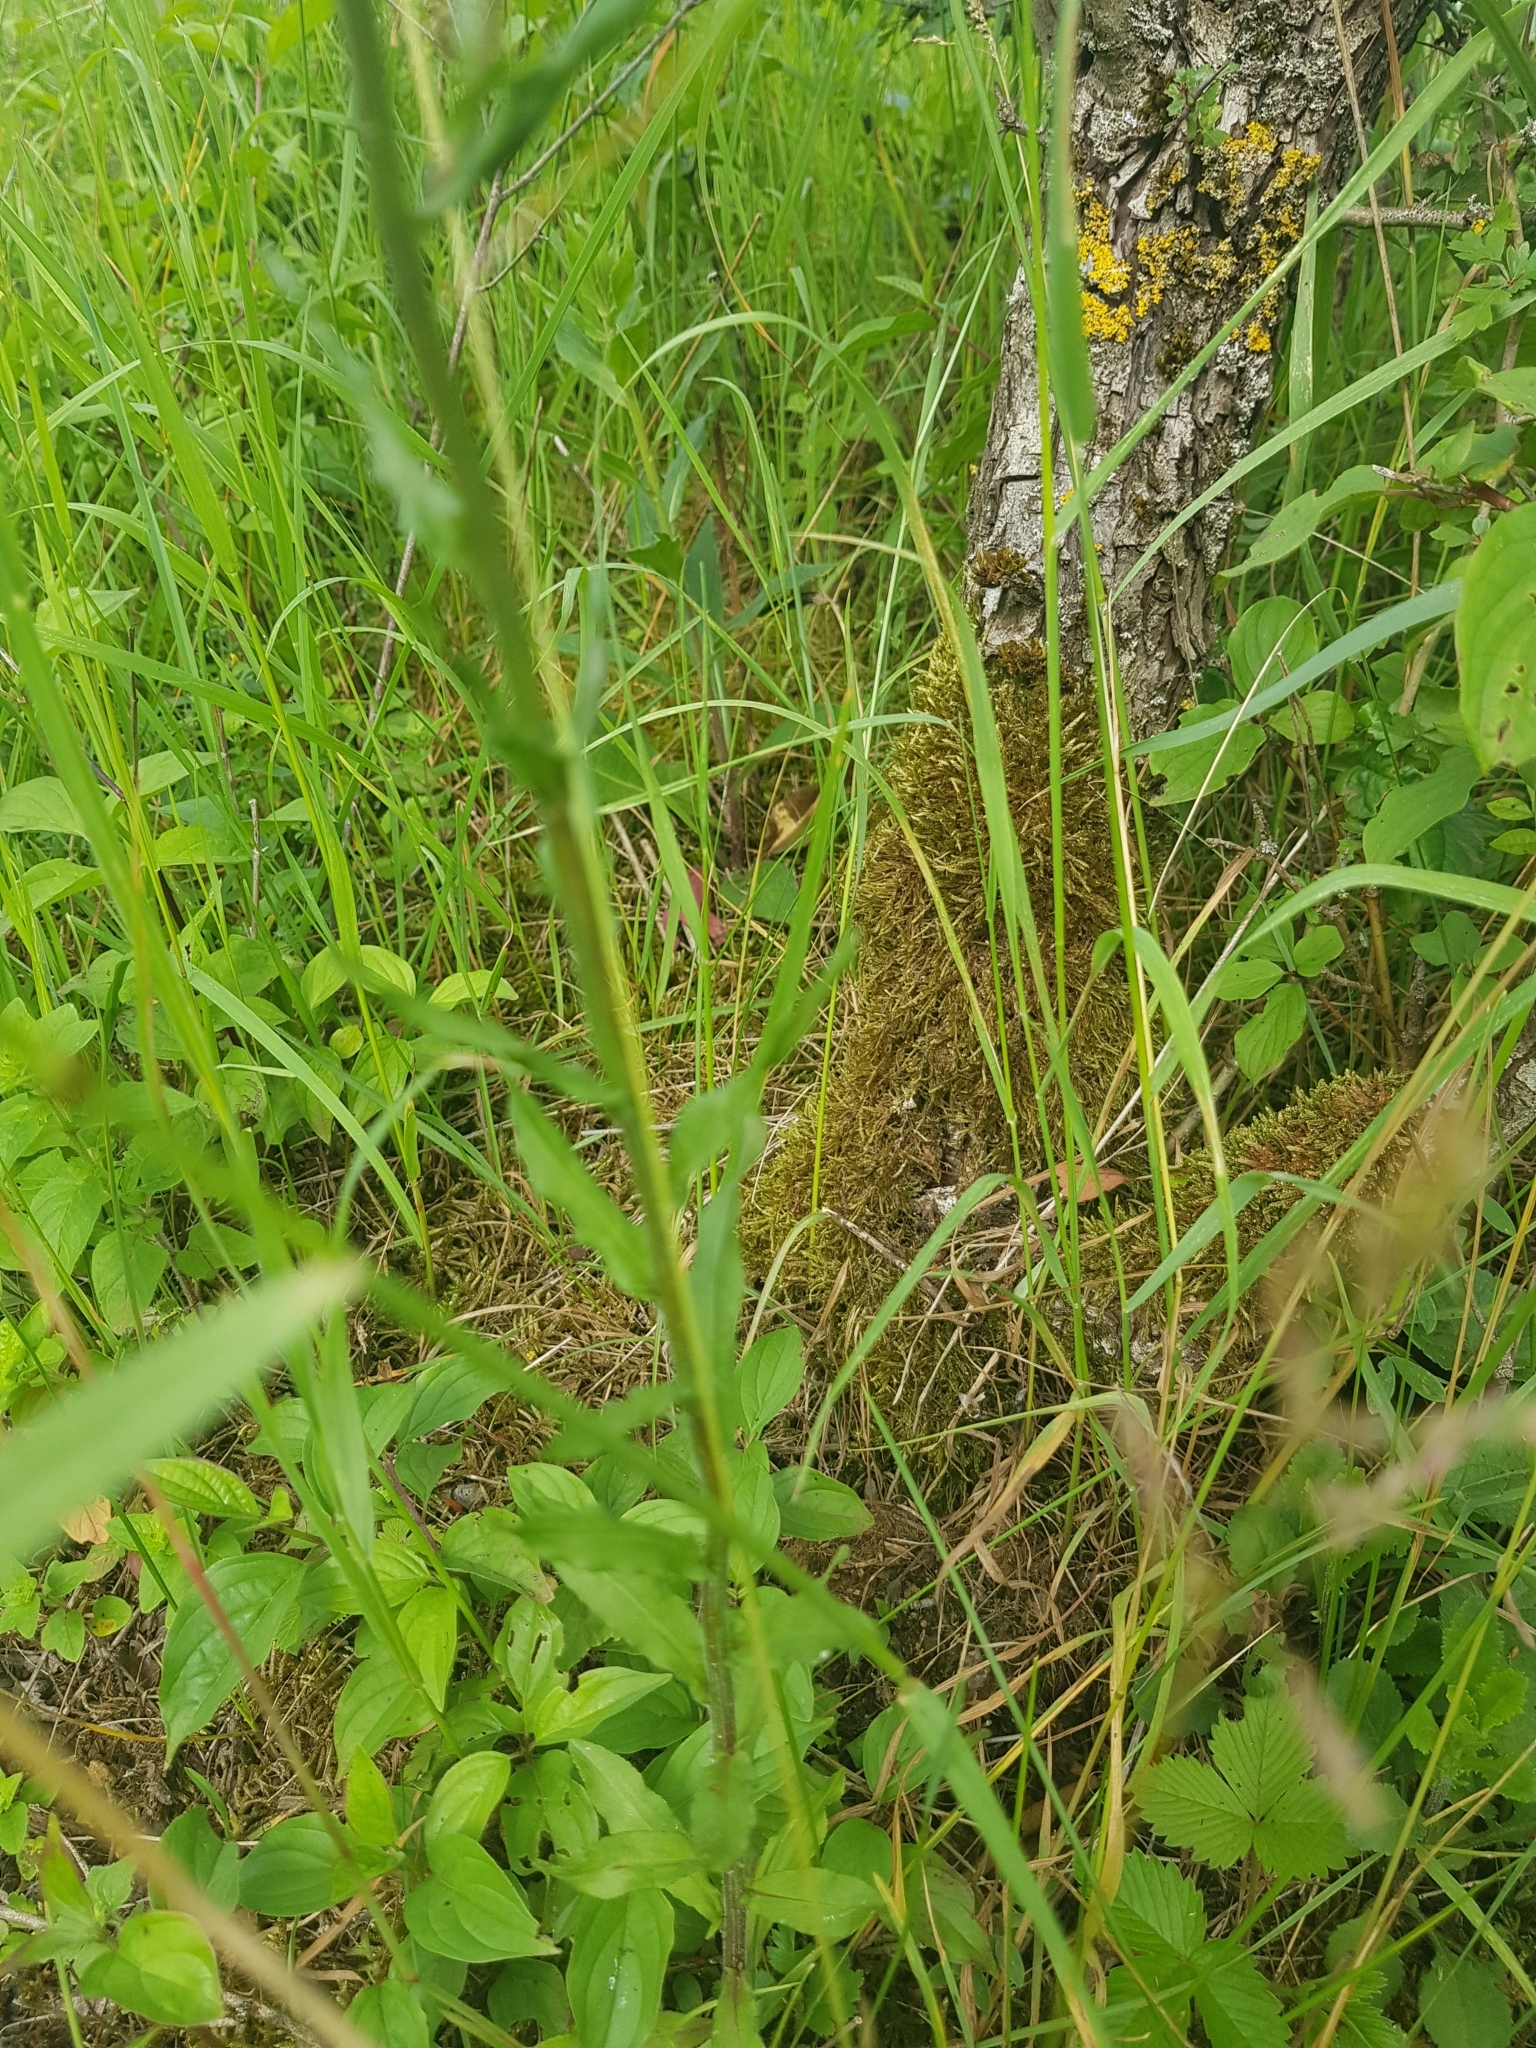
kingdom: Plantae
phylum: Tracheophyta
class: Magnoliopsida
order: Asterales
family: Campanulaceae
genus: Campanula
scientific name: Campanula rapunculus
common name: Rampion bellflower
